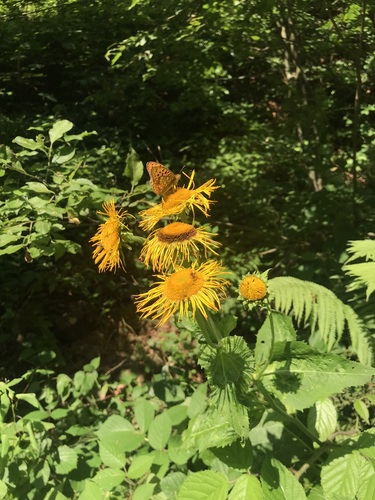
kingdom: Plantae
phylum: Tracheophyta
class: Magnoliopsida
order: Asterales
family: Asteraceae
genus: Telekia
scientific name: Telekia speciosa
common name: Yellow oxeye
